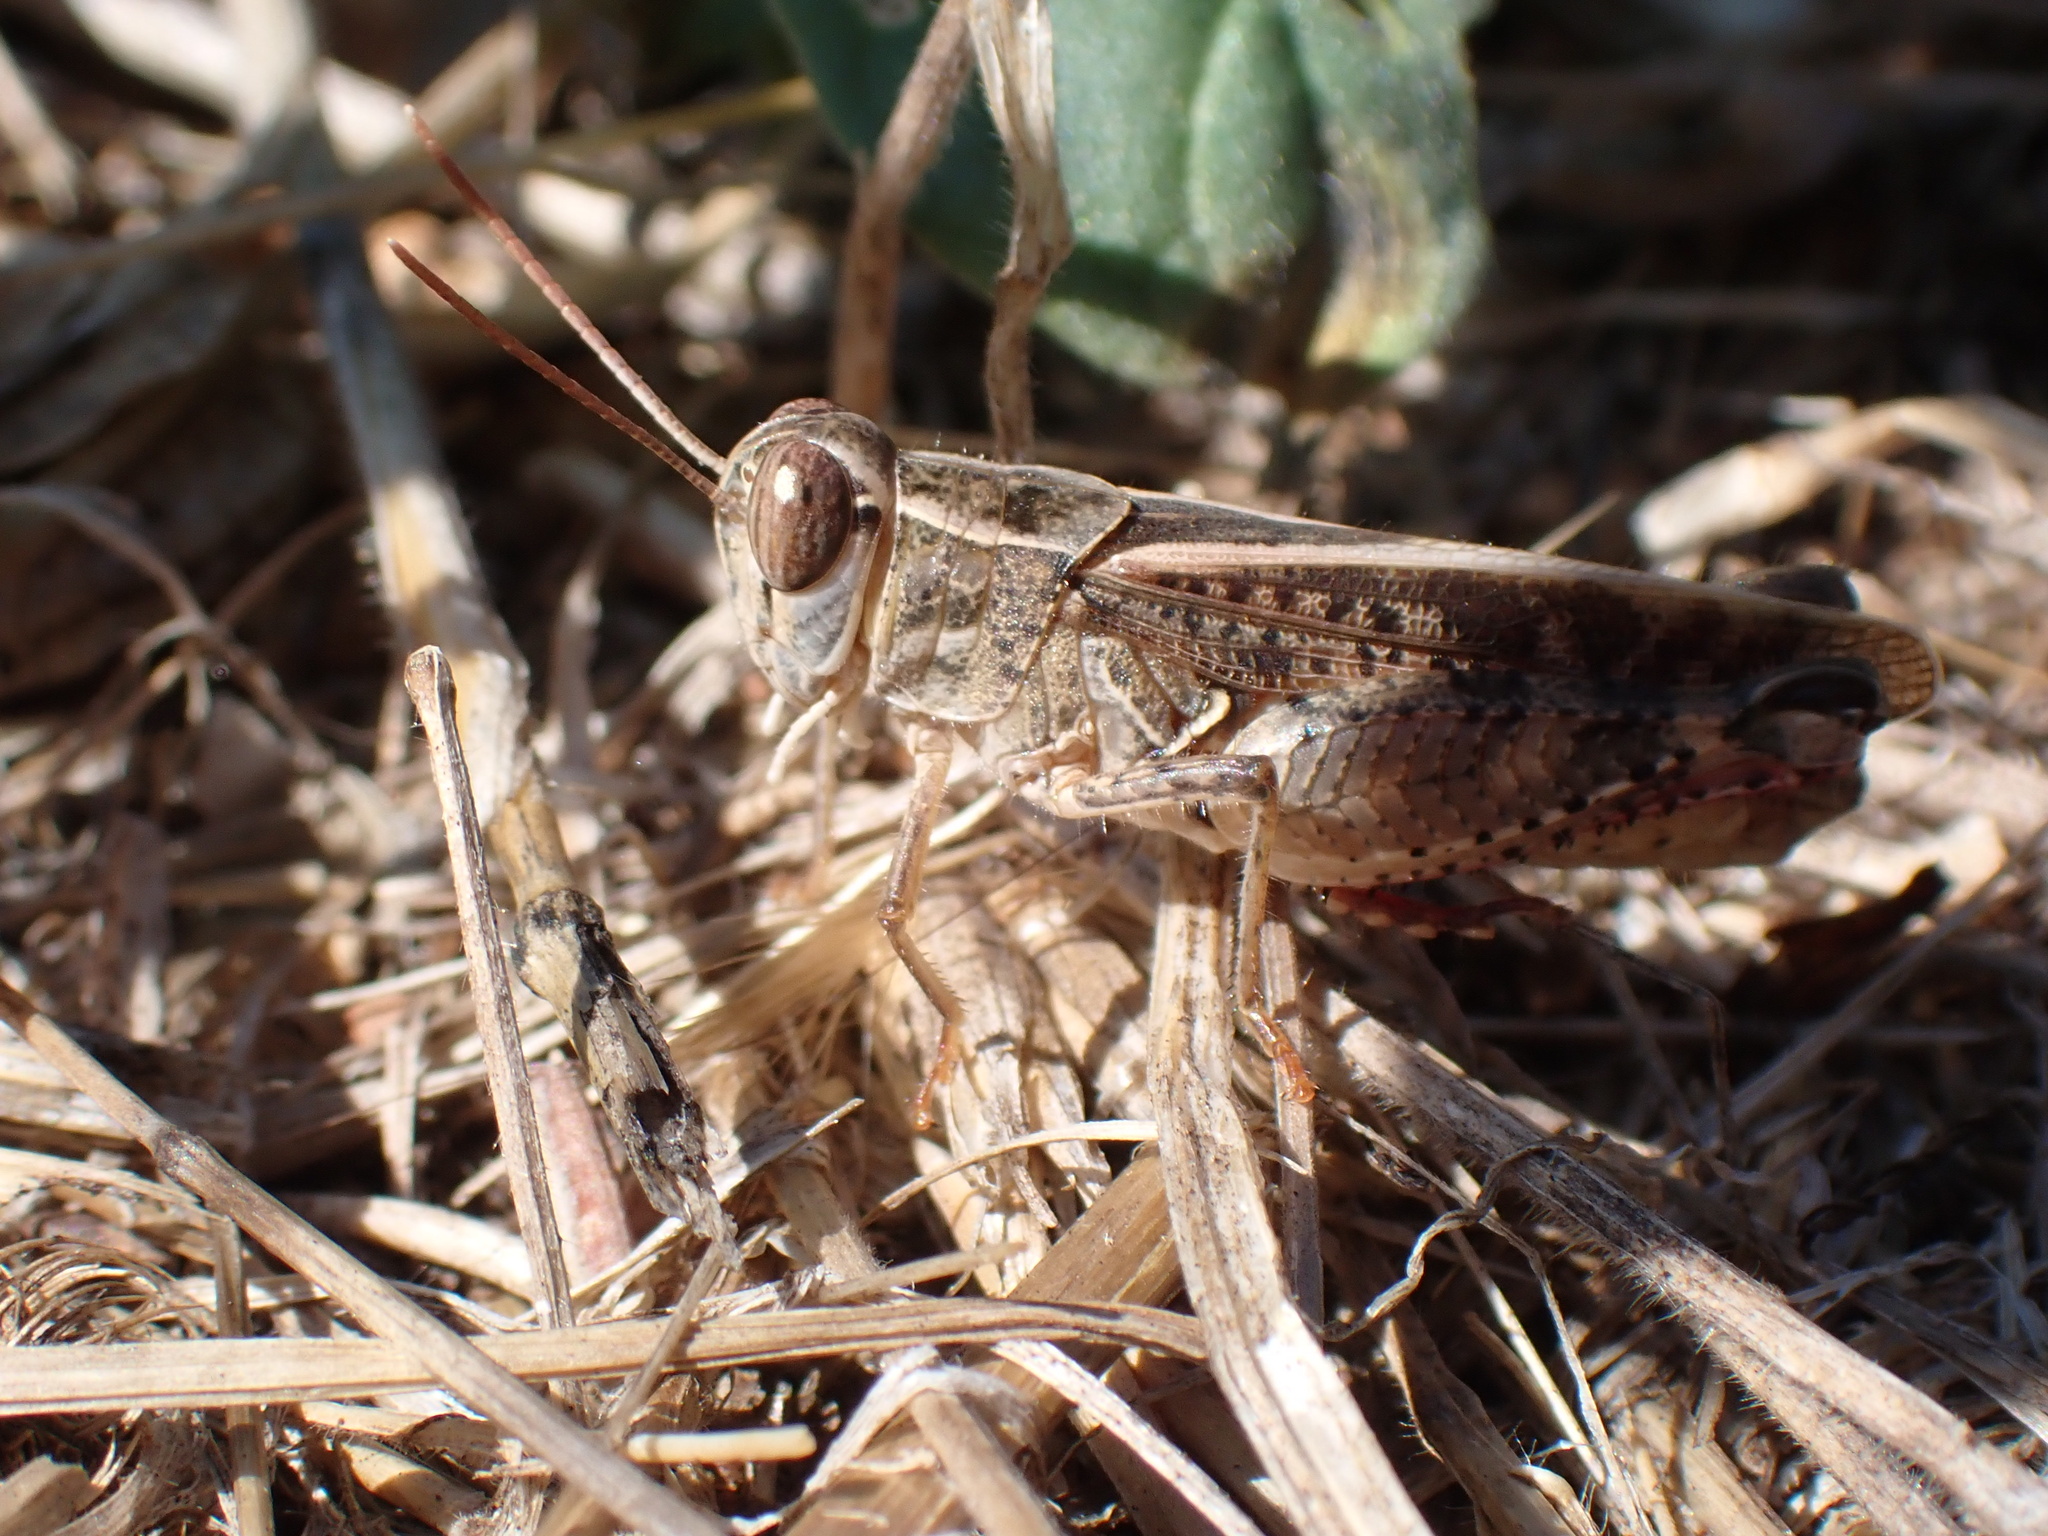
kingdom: Animalia
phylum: Arthropoda
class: Insecta
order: Orthoptera
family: Acrididae
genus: Calliptamus
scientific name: Calliptamus italicus
